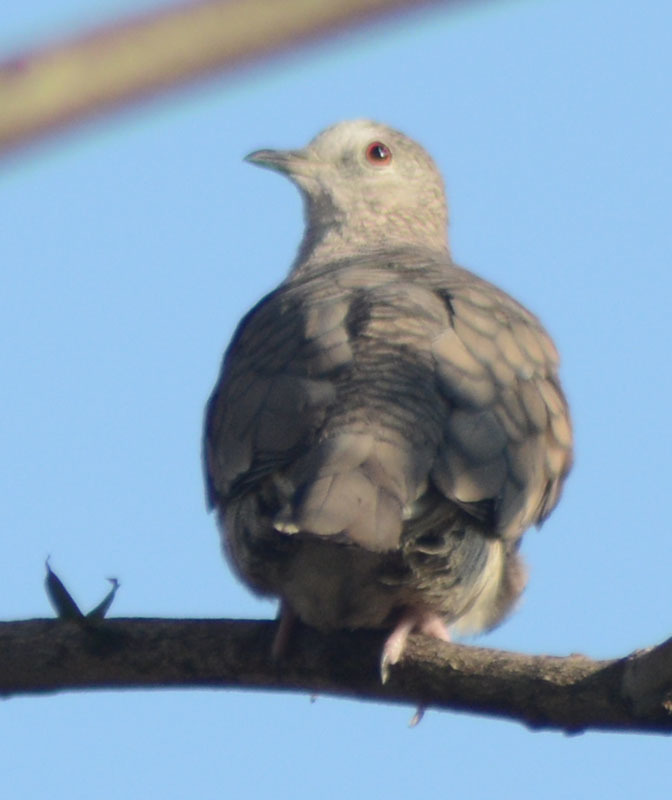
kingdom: Animalia
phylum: Chordata
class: Aves
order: Columbiformes
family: Columbidae
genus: Columbina
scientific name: Columbina inca
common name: Inca dove
